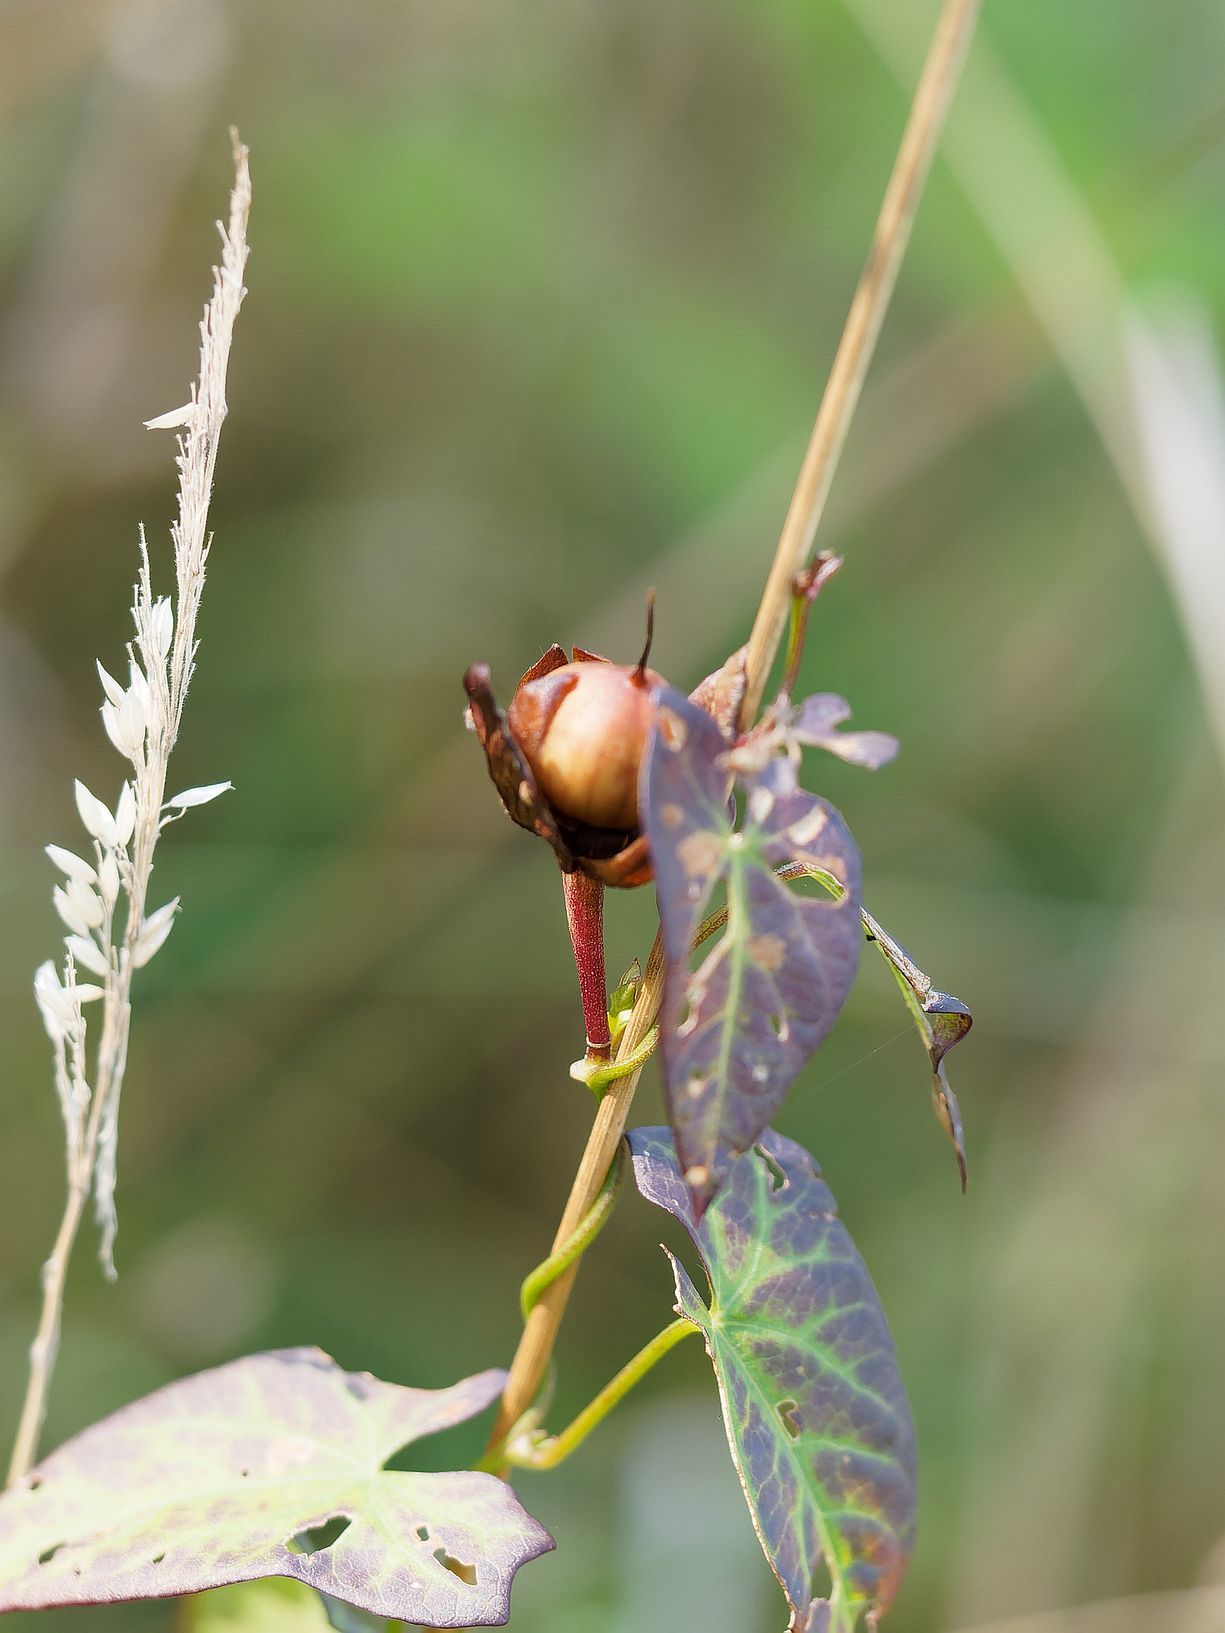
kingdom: Plantae
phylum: Tracheophyta
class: Magnoliopsida
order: Solanales
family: Convolvulaceae
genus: Calystegia
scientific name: Calystegia sepium
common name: Hedge bindweed
